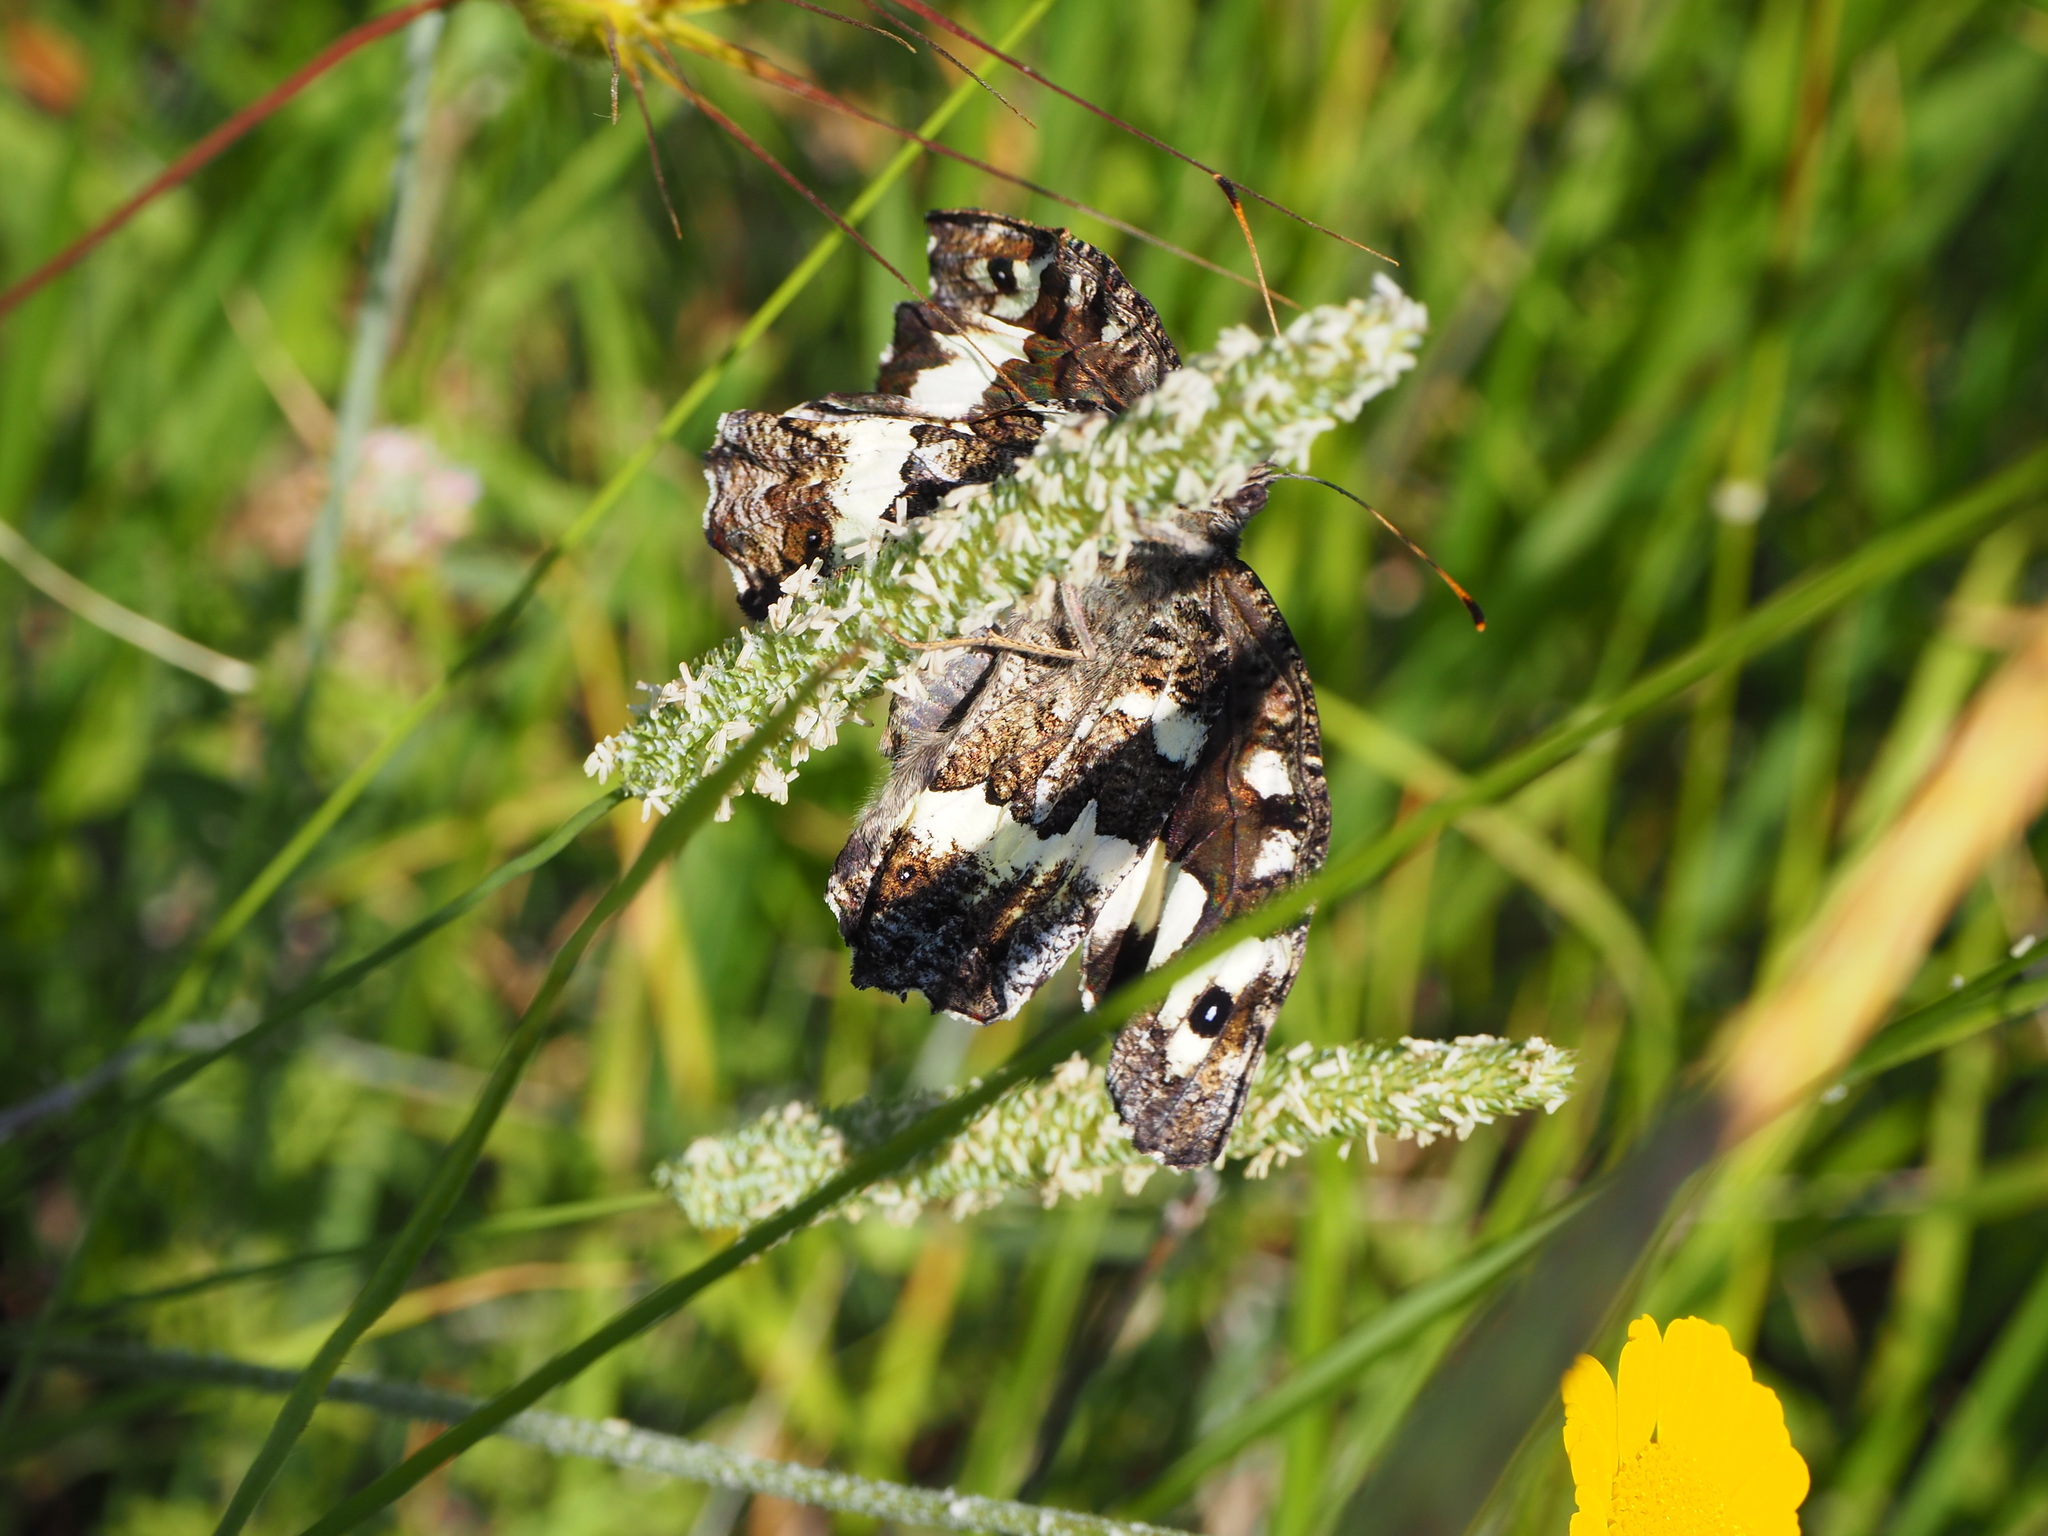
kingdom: Animalia
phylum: Arthropoda
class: Insecta
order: Lepidoptera
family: Lycaenidae
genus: Loweia
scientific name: Loweia tityrus
